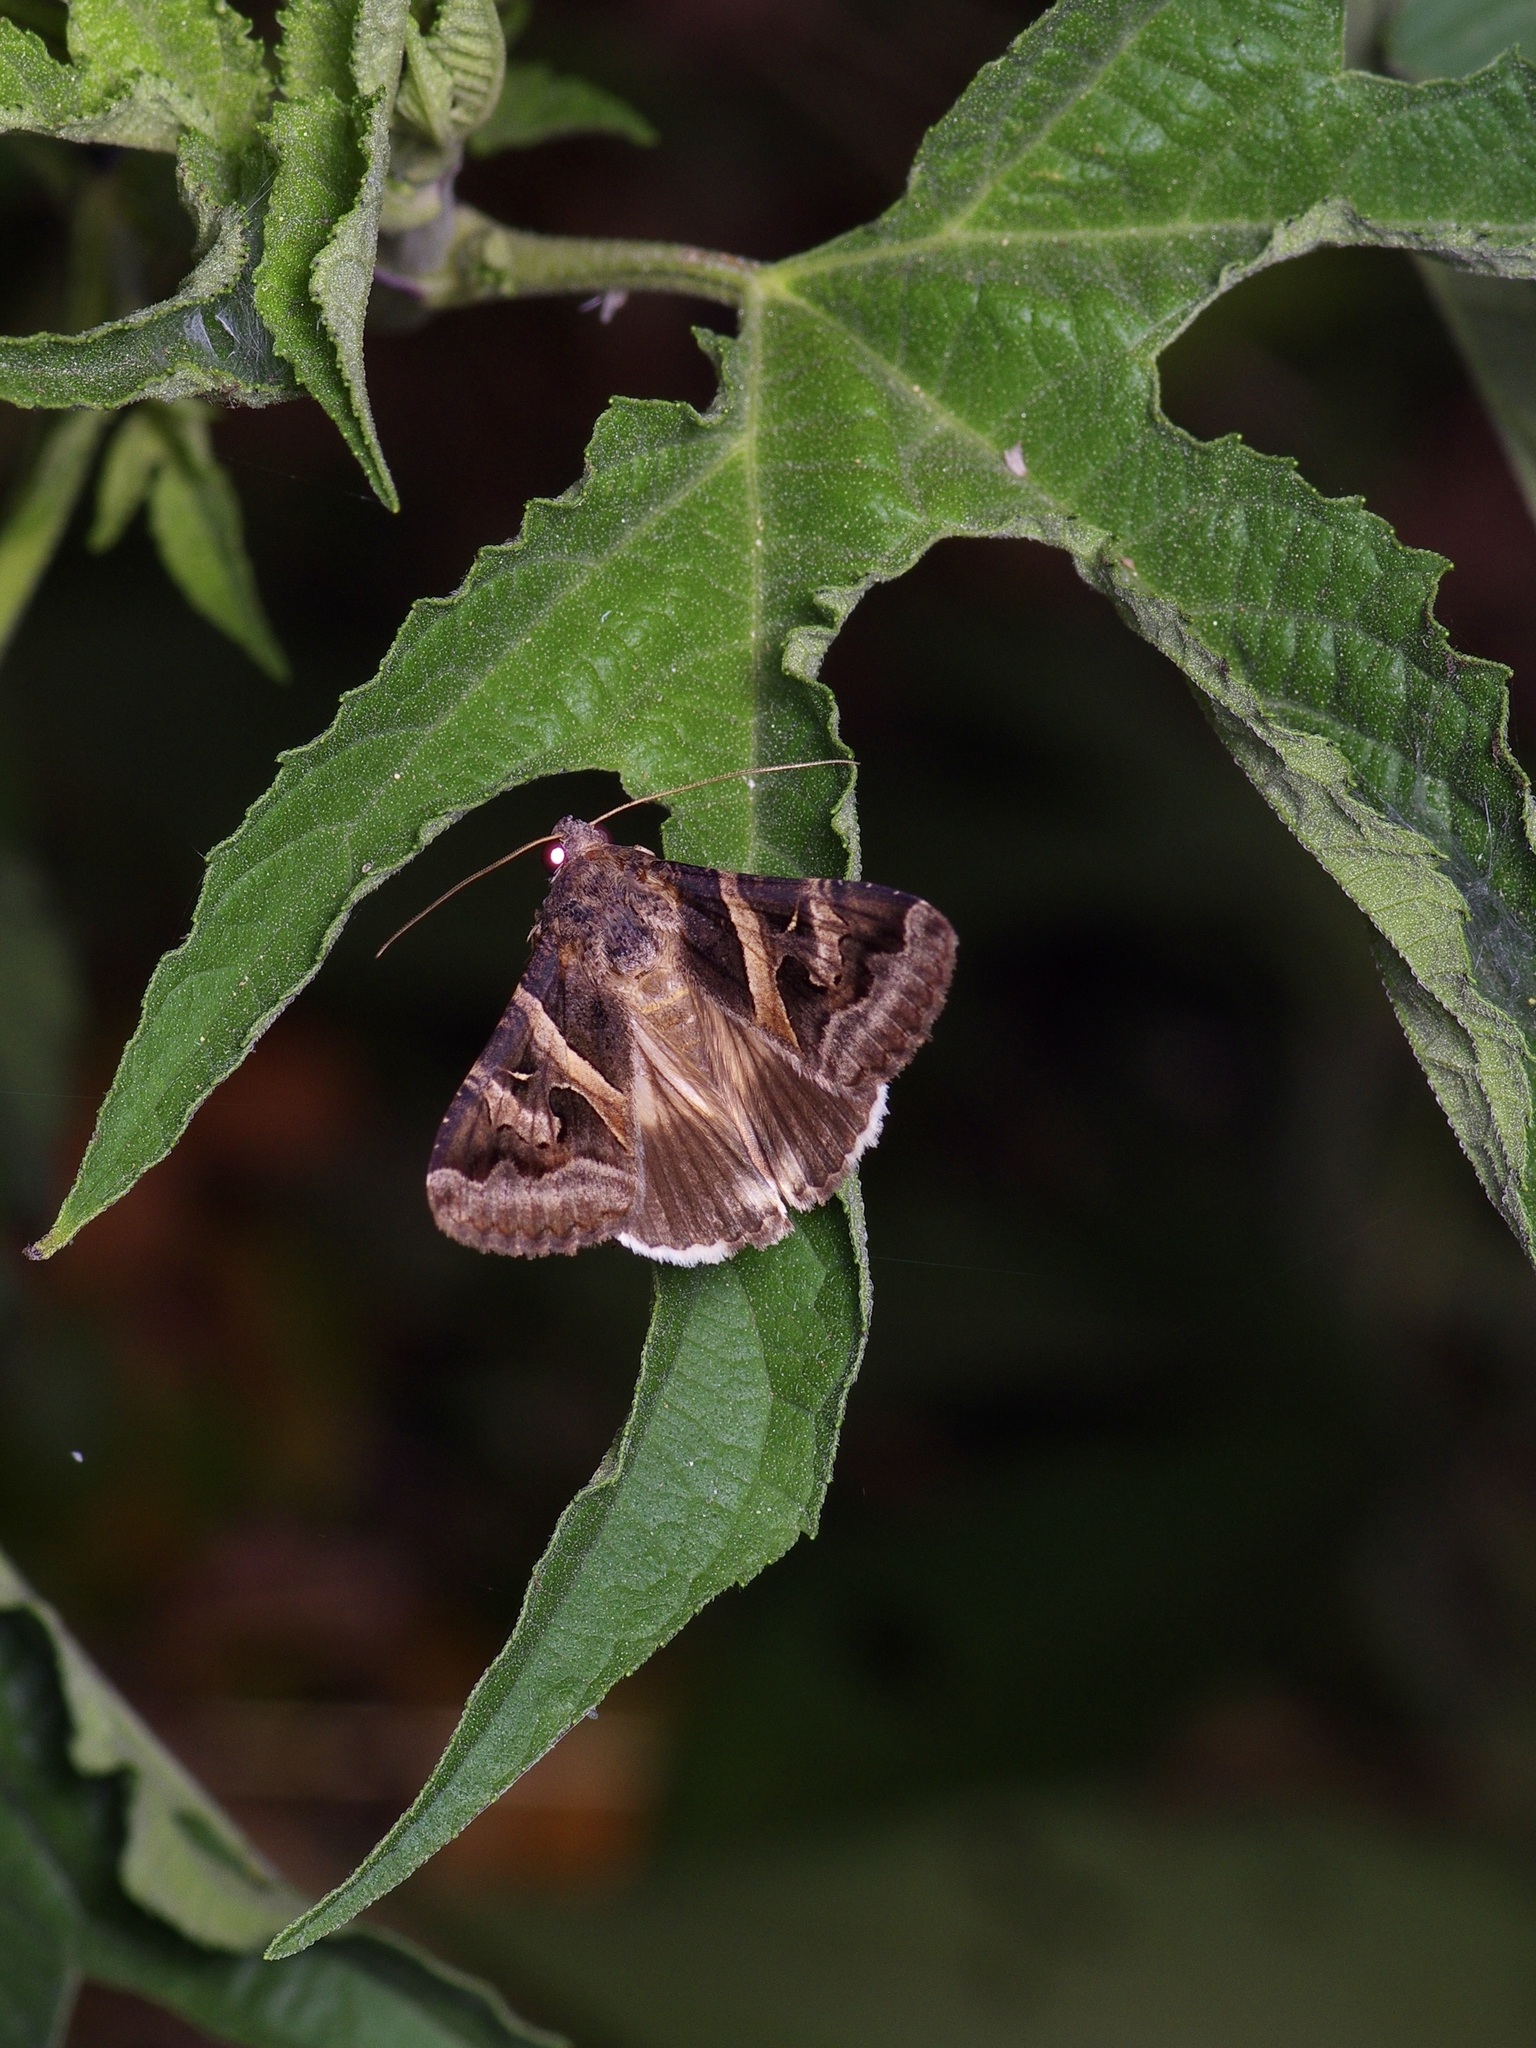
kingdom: Animalia
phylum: Arthropoda
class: Insecta
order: Lepidoptera
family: Erebidae
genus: Melipotis
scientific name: Melipotis indomita
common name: Moth
